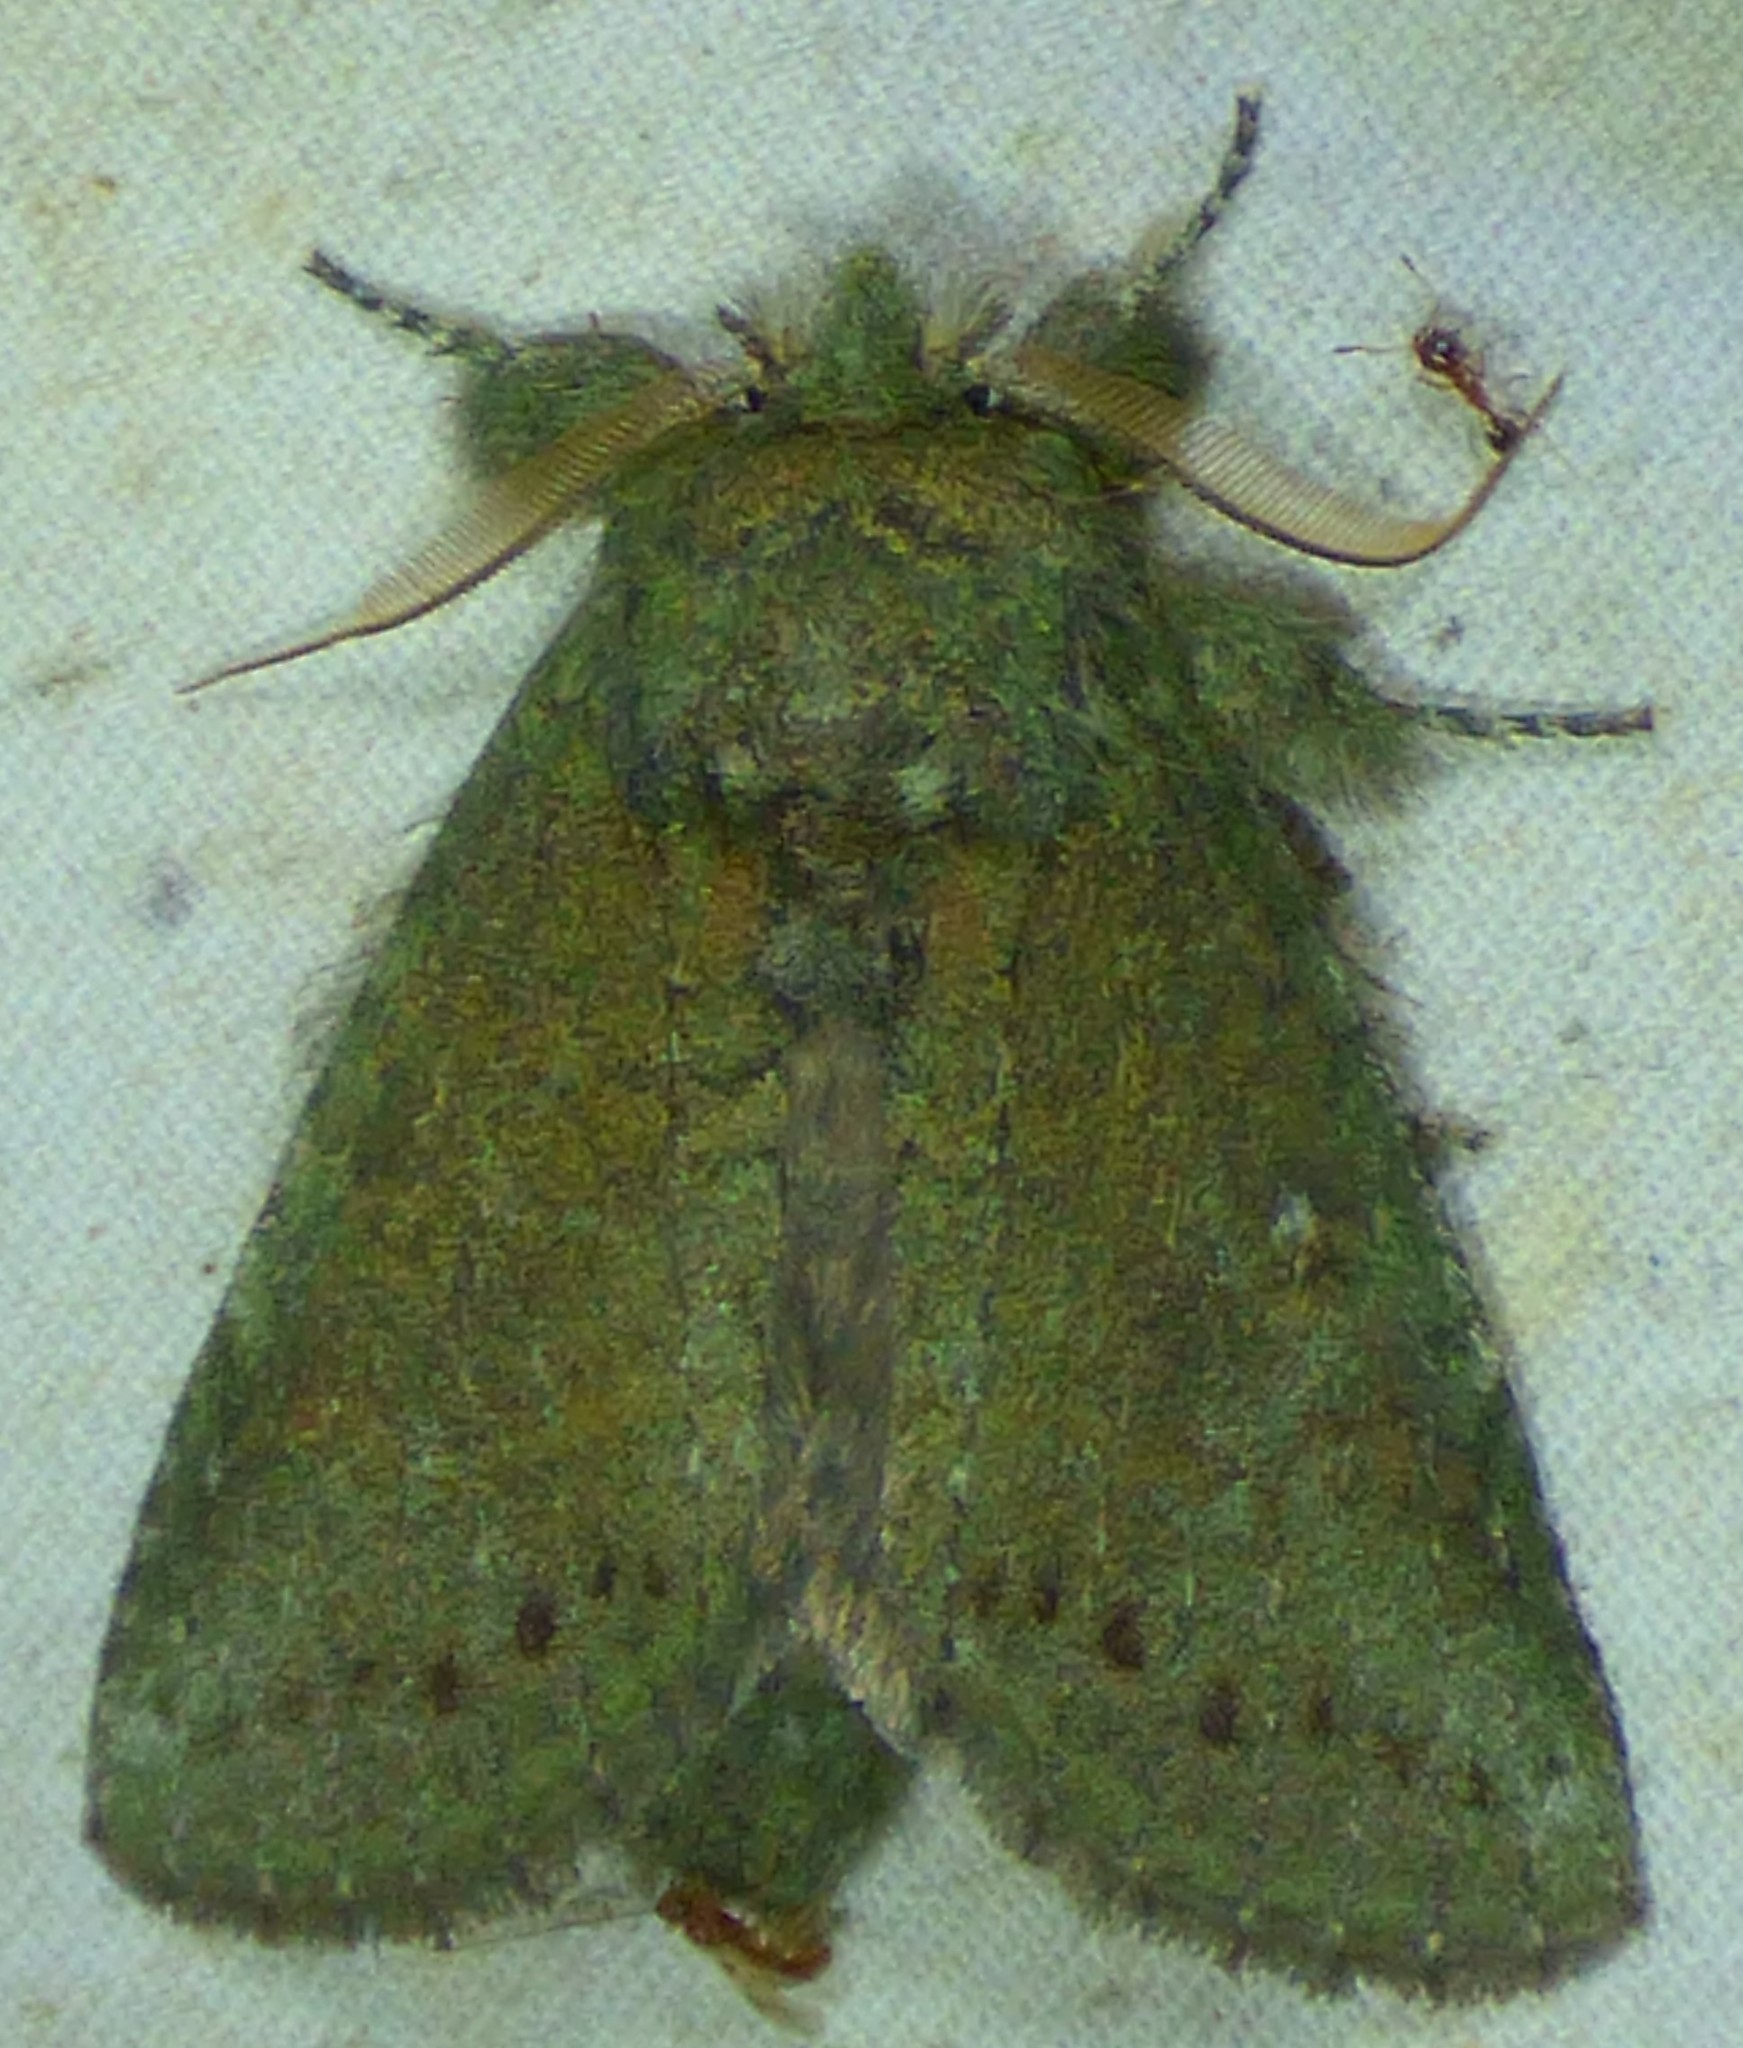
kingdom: Animalia
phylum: Arthropoda
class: Insecta
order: Lepidoptera
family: Notodontidae
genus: Disphragis
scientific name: Disphragis Cecrita guttivitta
